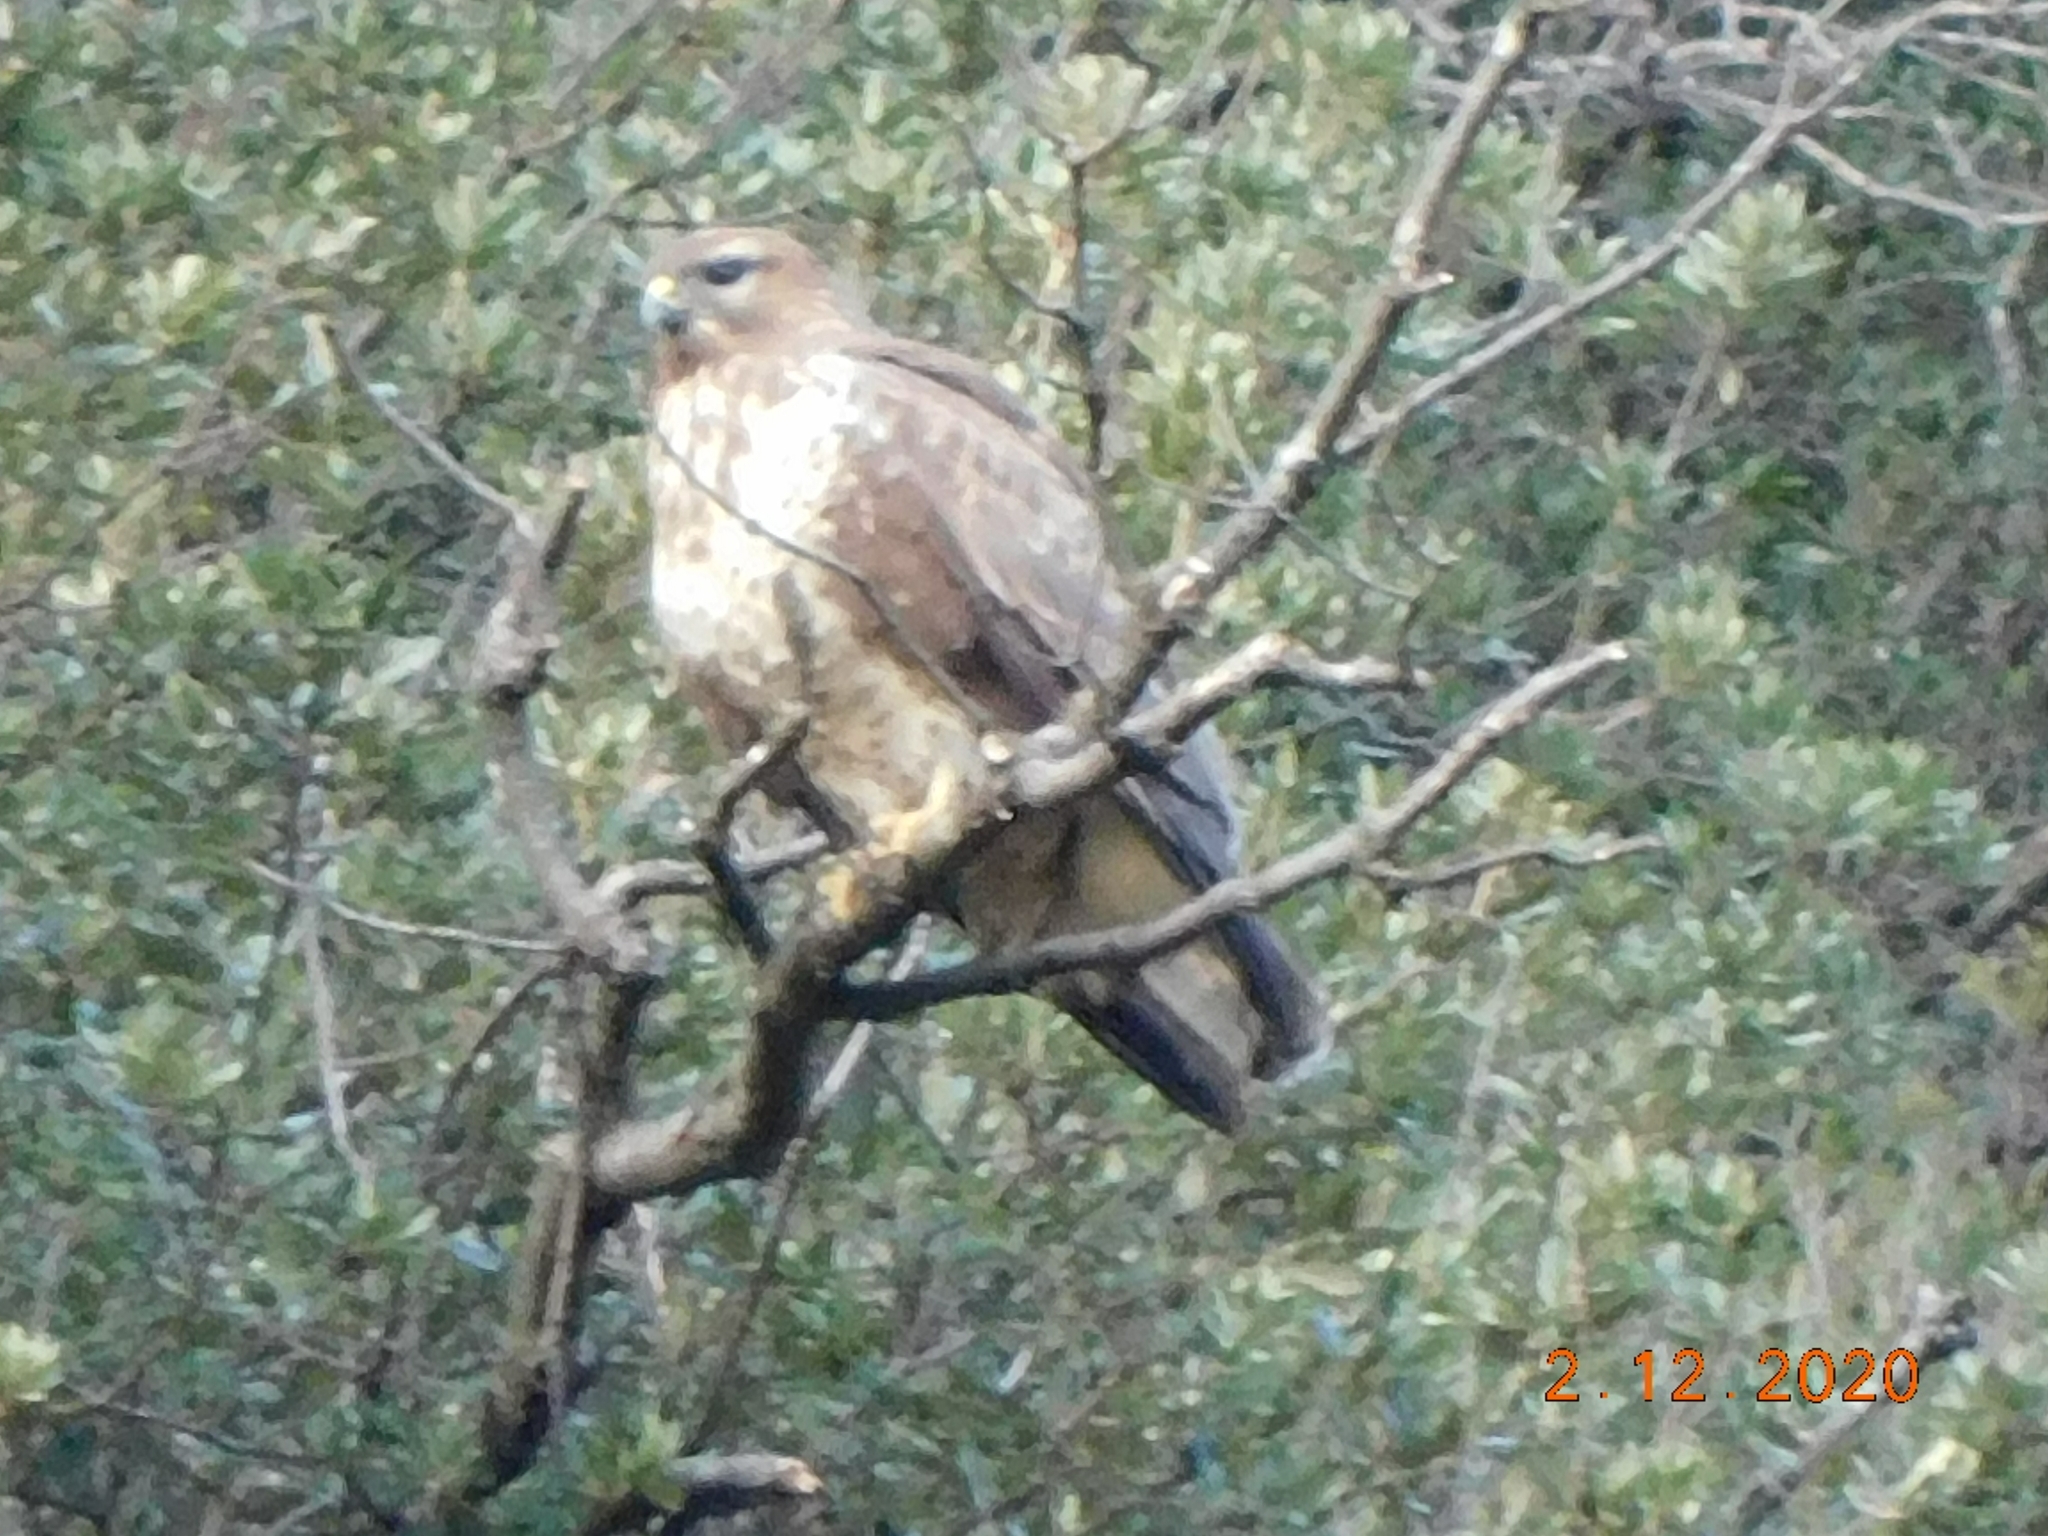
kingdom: Animalia
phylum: Chordata
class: Aves
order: Accipitriformes
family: Accipitridae
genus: Buteo
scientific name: Buteo buteo
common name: Common buzzard
